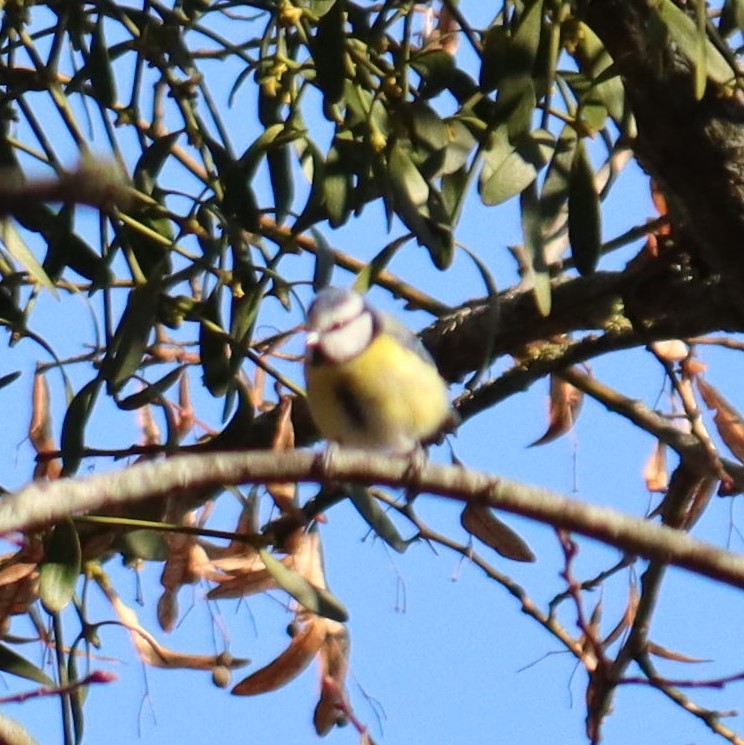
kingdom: Animalia
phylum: Chordata
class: Aves
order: Passeriformes
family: Paridae
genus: Cyanistes
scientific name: Cyanistes caeruleus
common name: Eurasian blue tit
